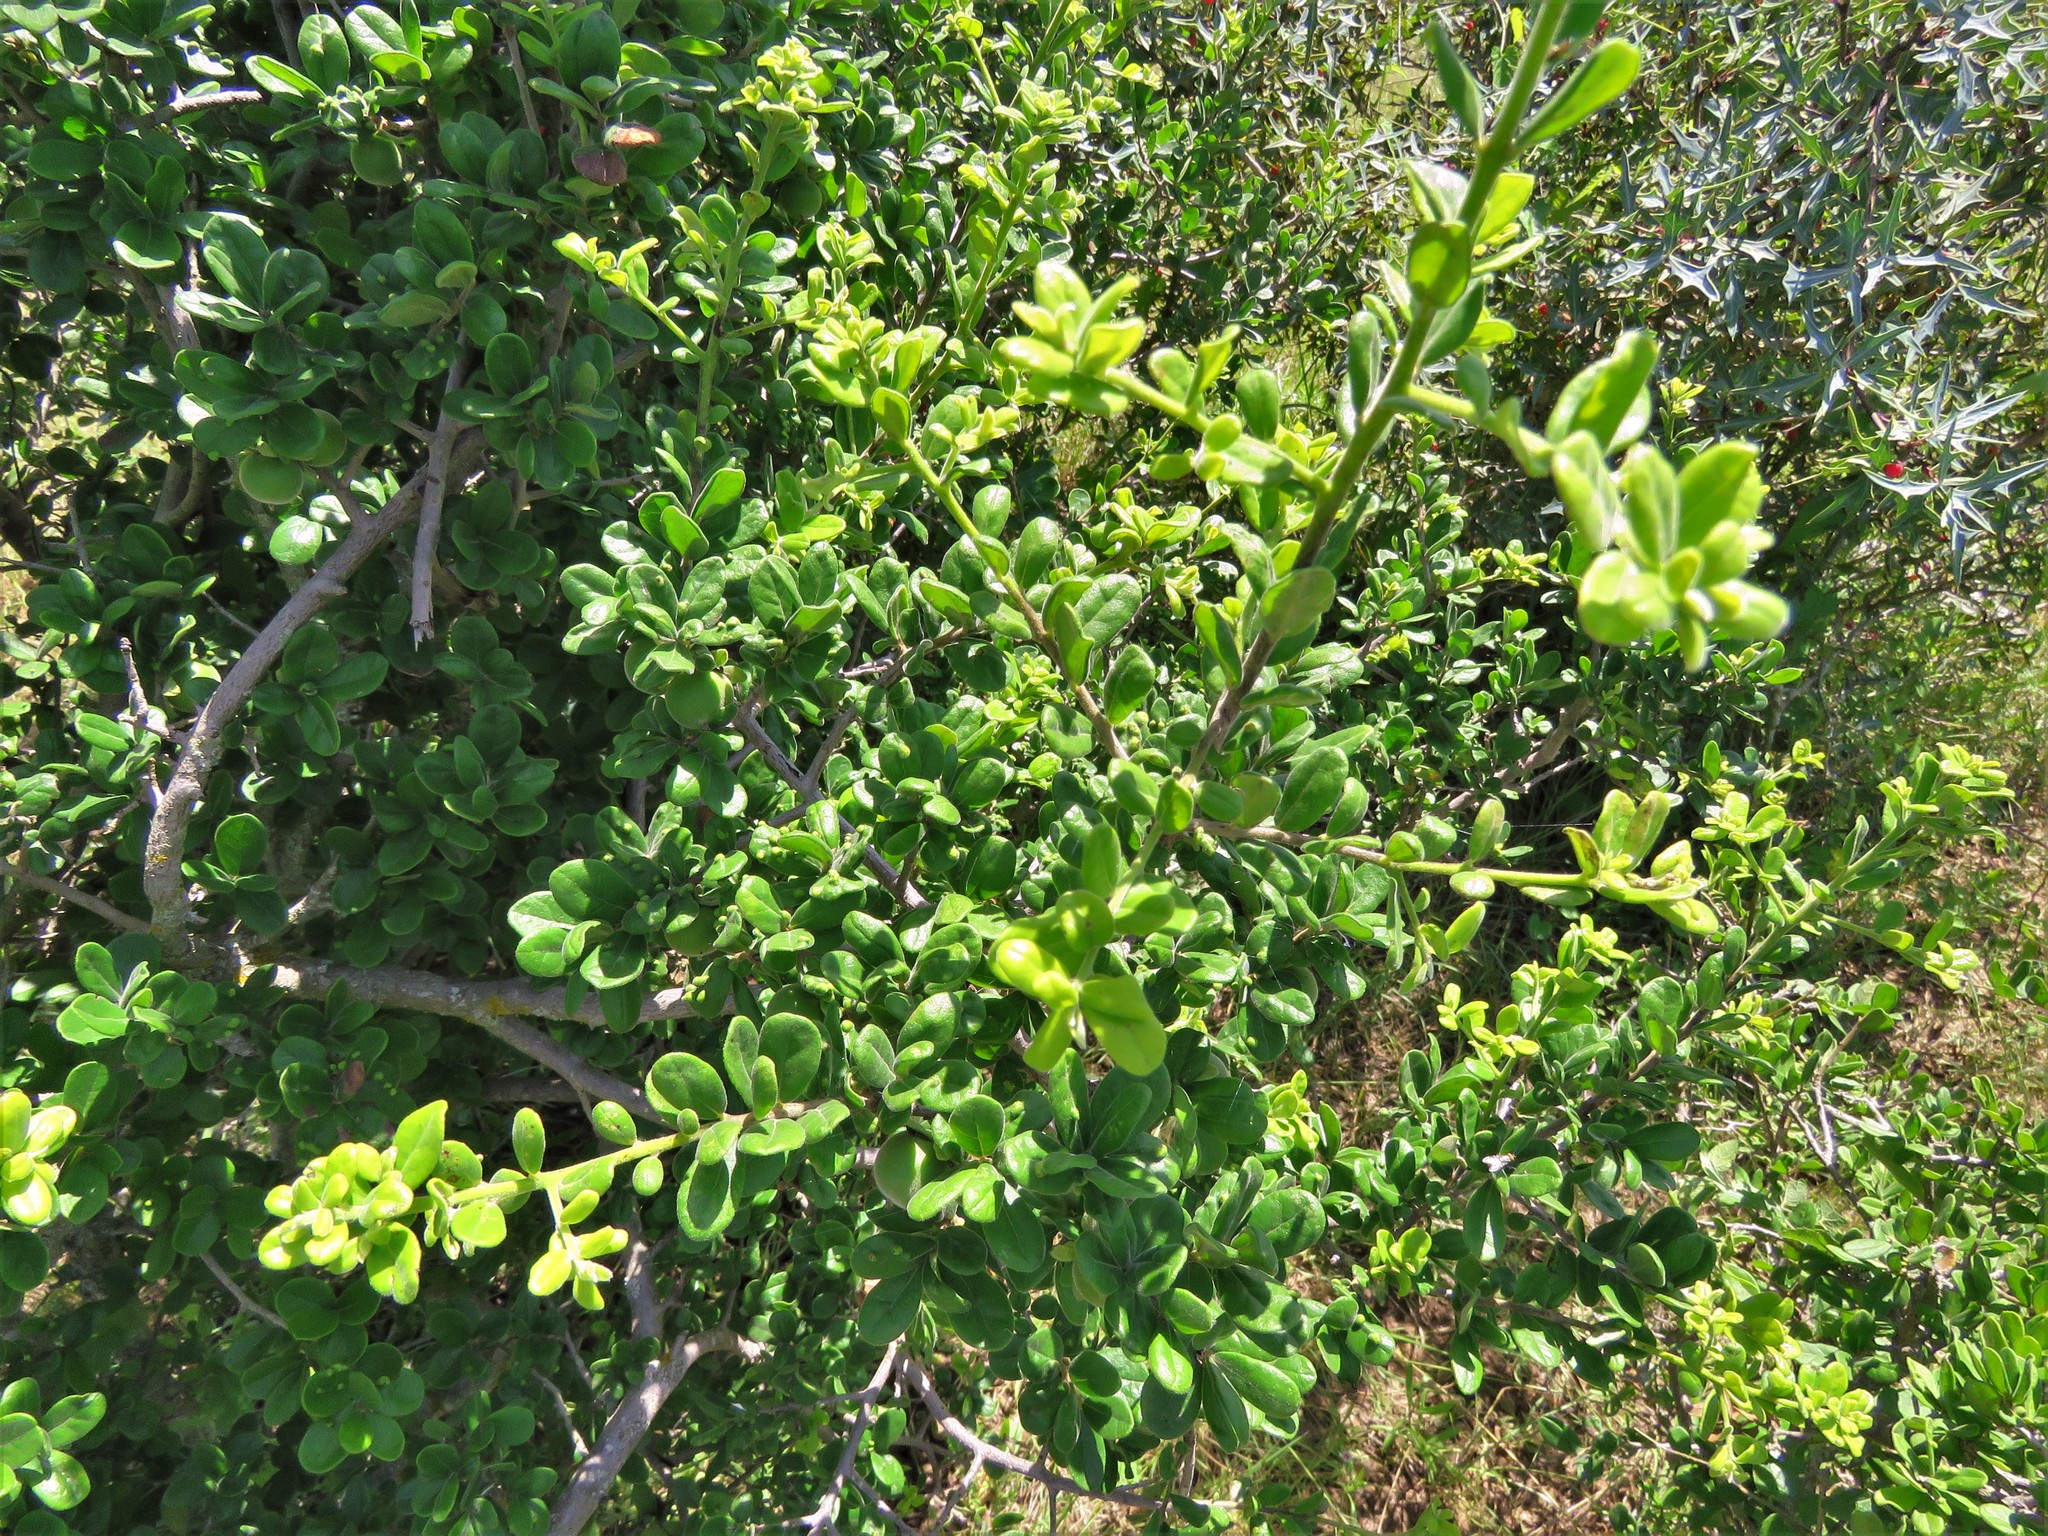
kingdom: Plantae
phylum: Tracheophyta
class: Magnoliopsida
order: Ericales
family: Ebenaceae
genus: Diospyros
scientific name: Diospyros texana
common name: Texas persimmon
